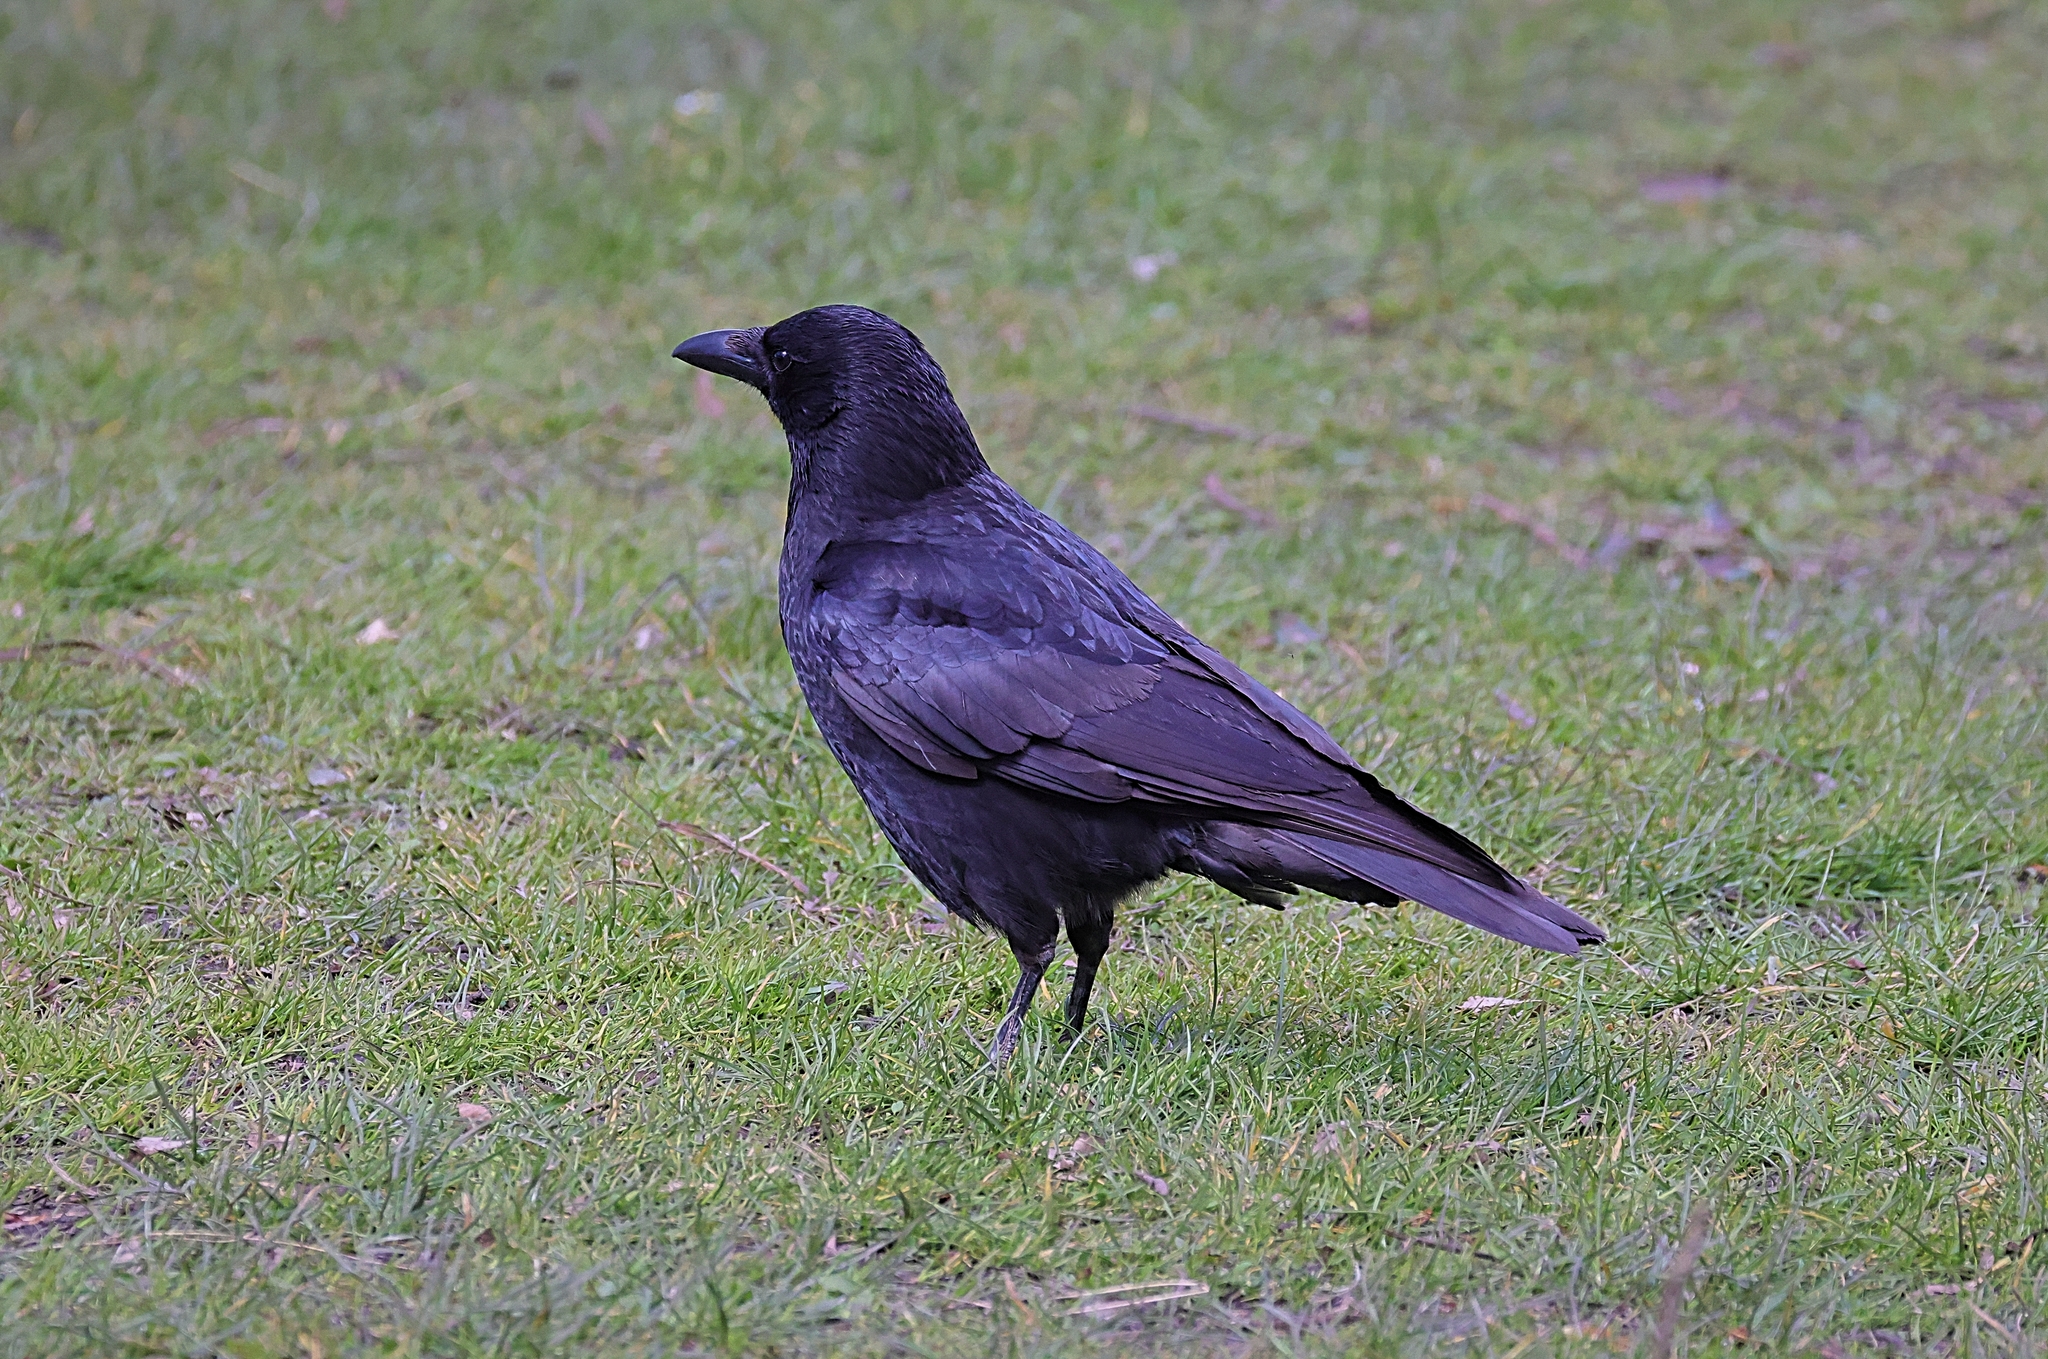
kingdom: Animalia
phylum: Chordata
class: Aves
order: Passeriformes
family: Corvidae
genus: Corvus
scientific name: Corvus corone
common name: Carrion crow
